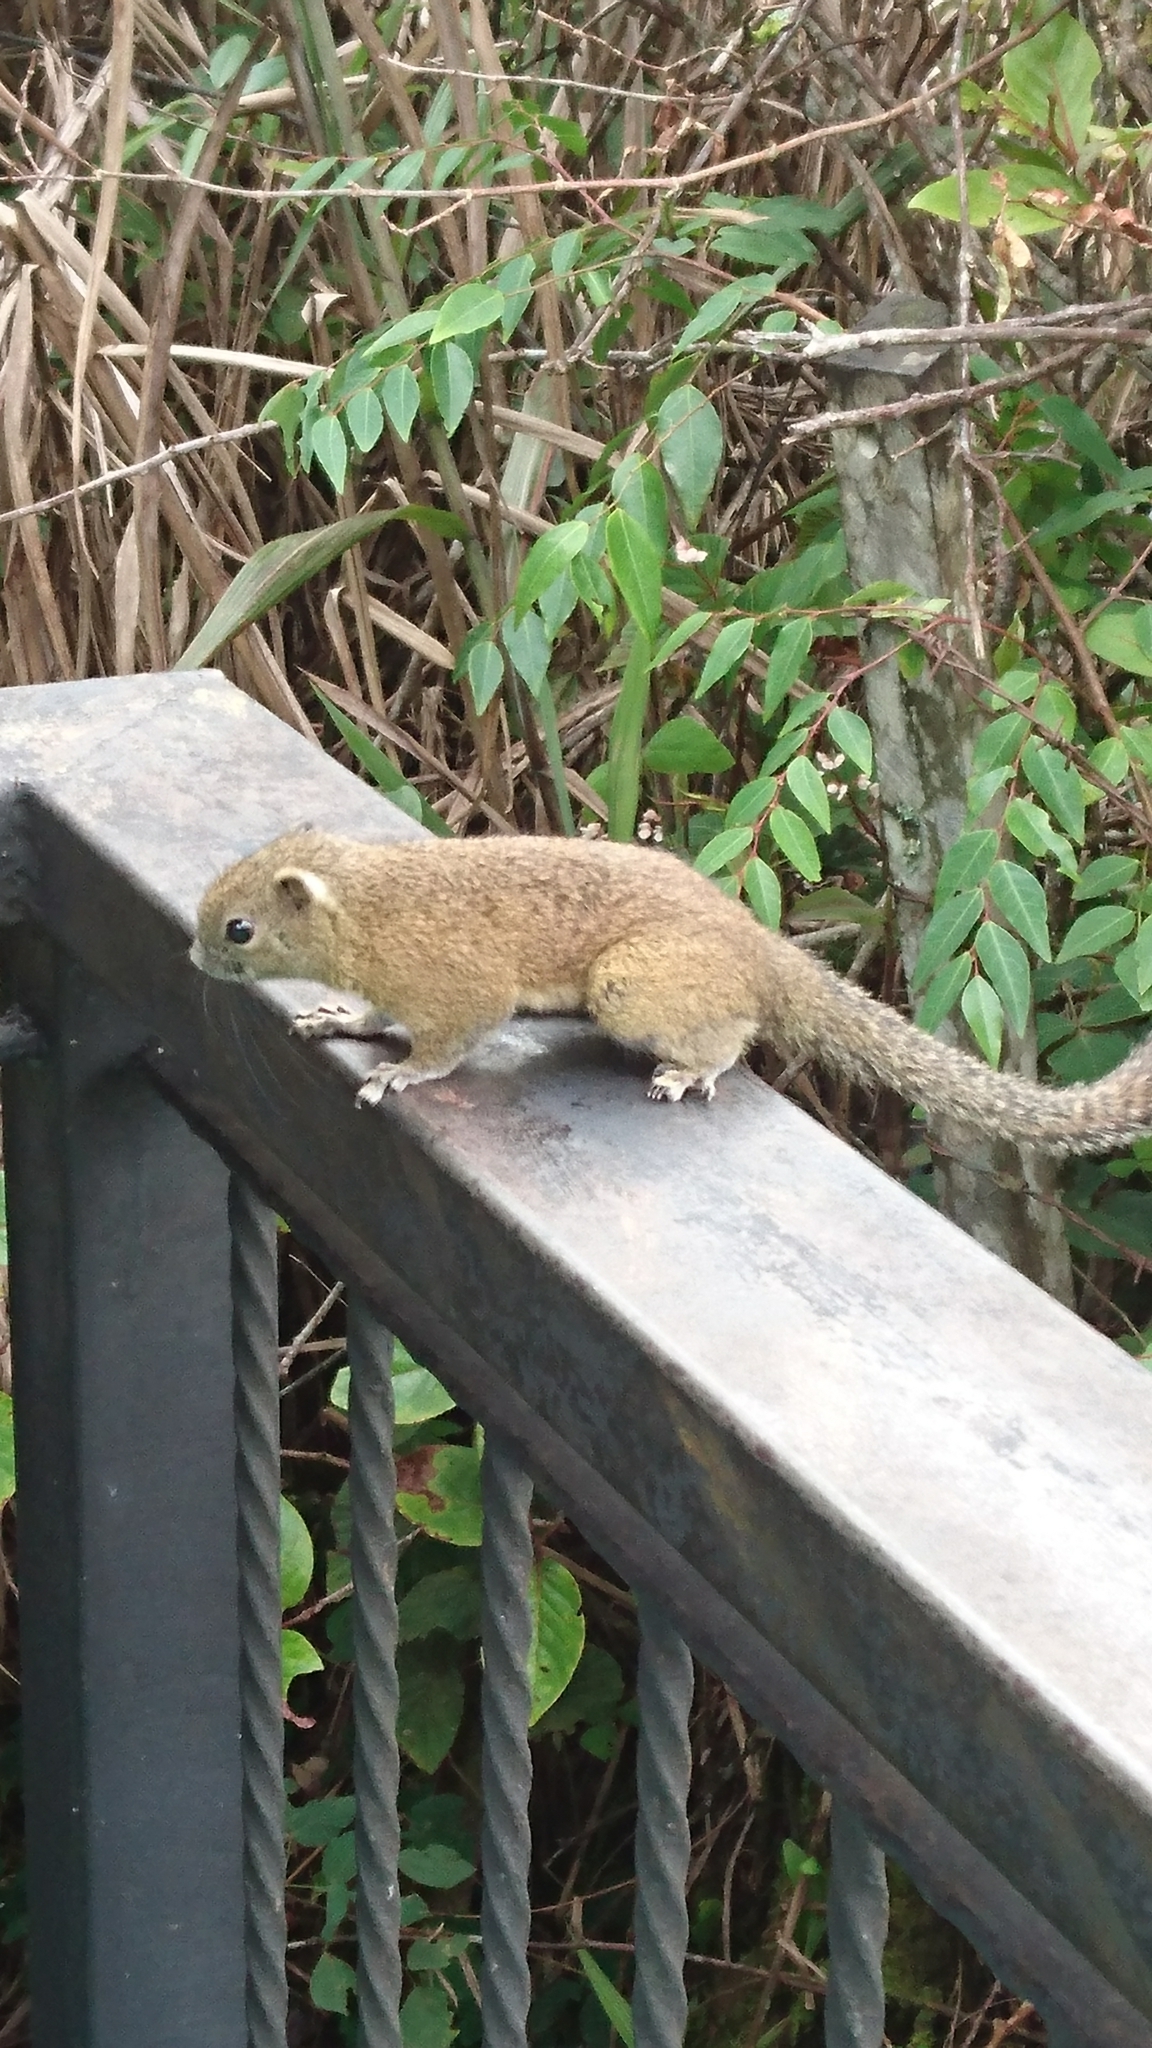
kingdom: Animalia
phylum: Chordata
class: Mammalia
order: Rodentia
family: Sciuridae
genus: Callosciurus
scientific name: Callosciurus orestes
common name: Borneo black-banded squirrel
